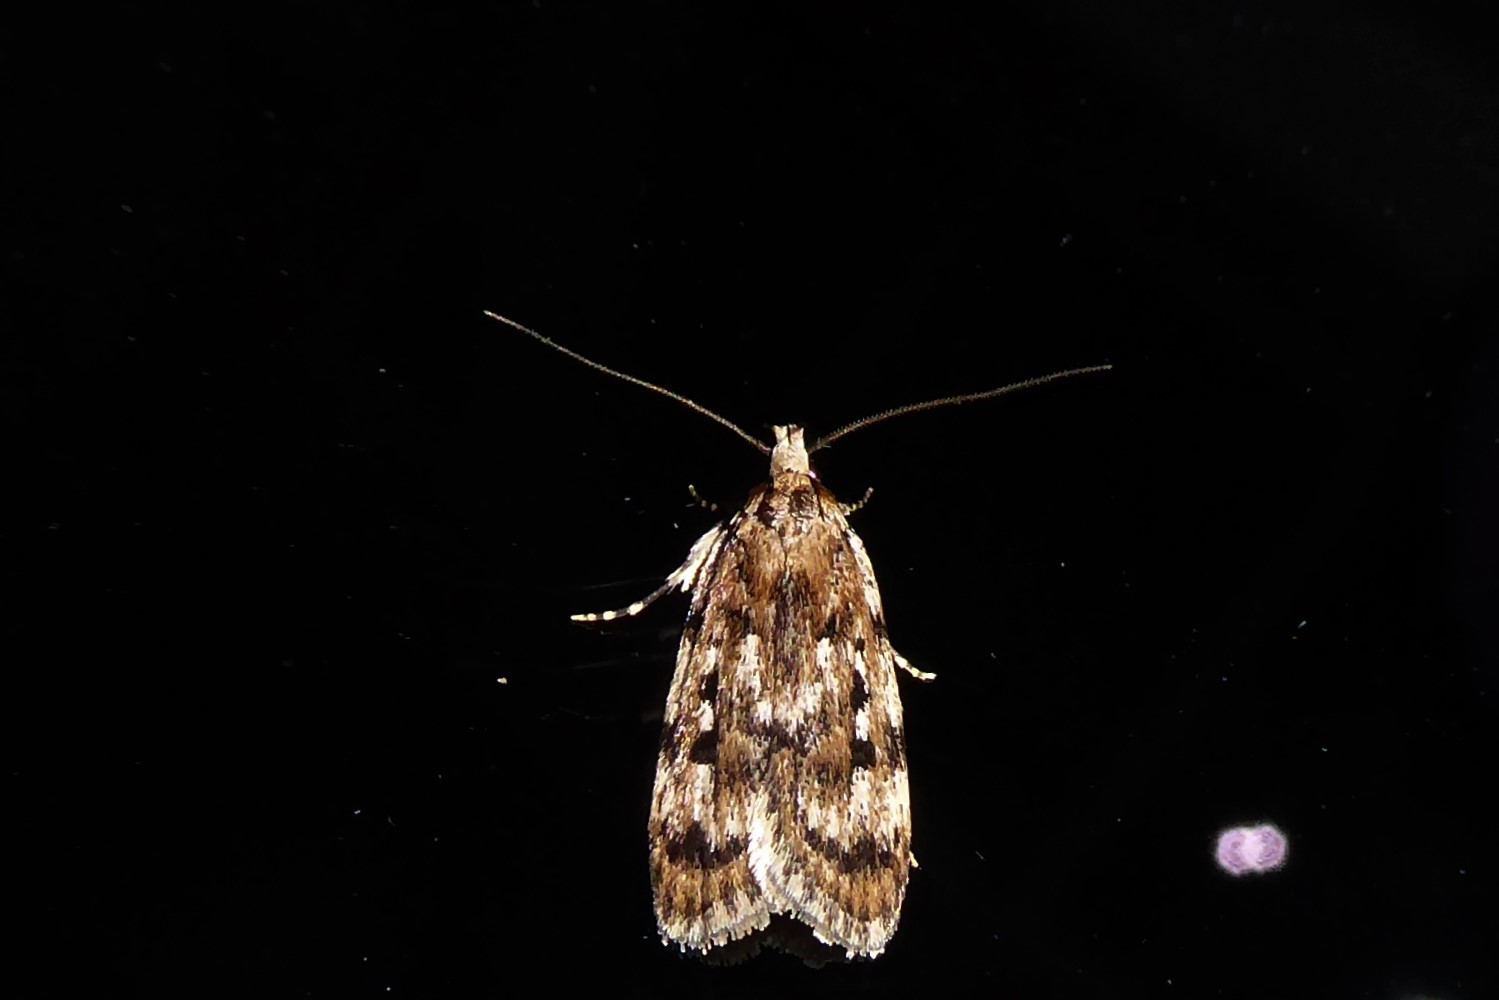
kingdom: Animalia
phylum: Arthropoda
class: Insecta
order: Lepidoptera
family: Oecophoridae
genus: Barea
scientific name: Barea exarcha
